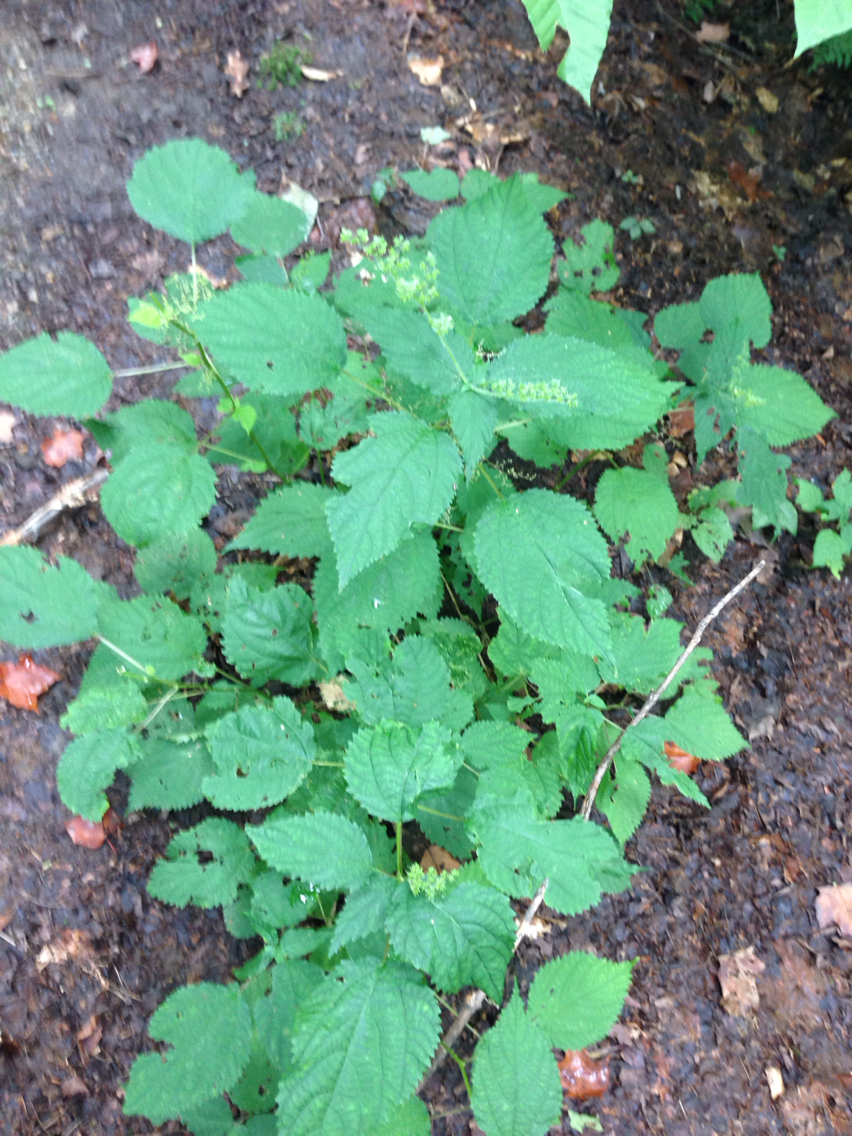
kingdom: Plantae
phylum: Tracheophyta
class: Magnoliopsida
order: Rosales
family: Urticaceae
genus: Laportea
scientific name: Laportea canadensis
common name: Canada nettle
